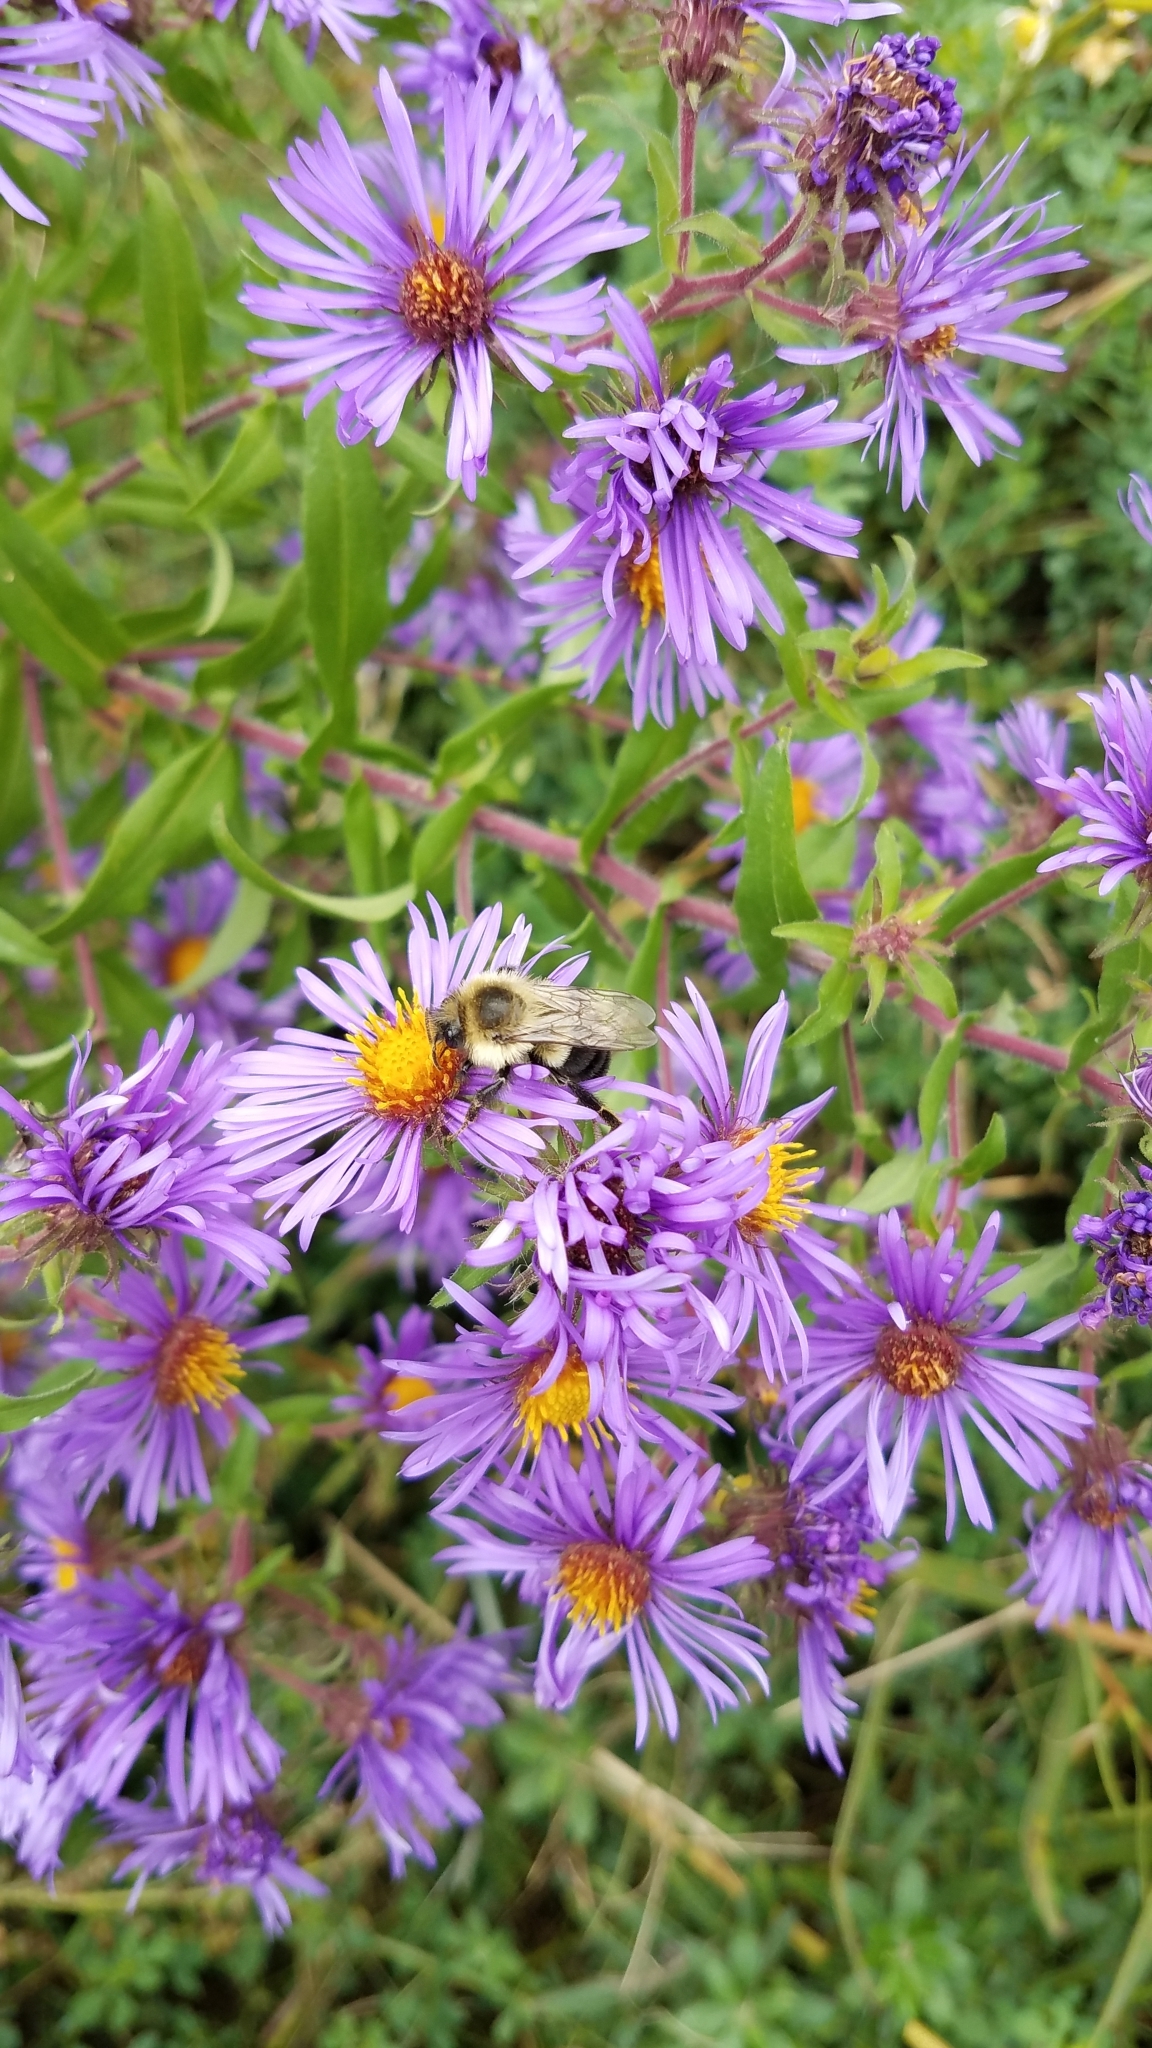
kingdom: Animalia
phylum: Arthropoda
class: Insecta
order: Hymenoptera
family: Apidae
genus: Bombus
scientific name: Bombus impatiens
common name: Common eastern bumble bee
